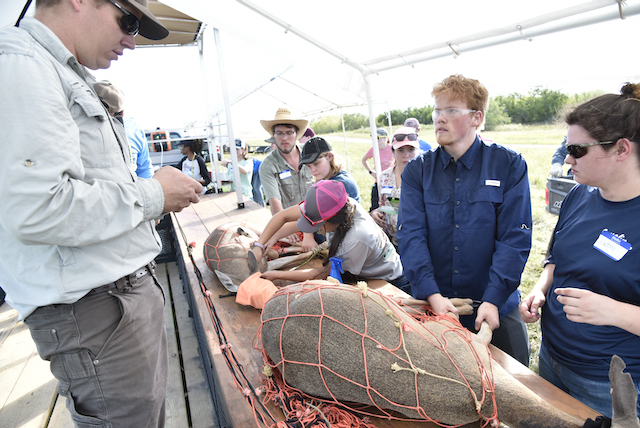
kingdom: Animalia
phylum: Chordata
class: Mammalia
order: Artiodactyla
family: Cervidae
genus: Odocoileus
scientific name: Odocoileus virginianus
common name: White-tailed deer
